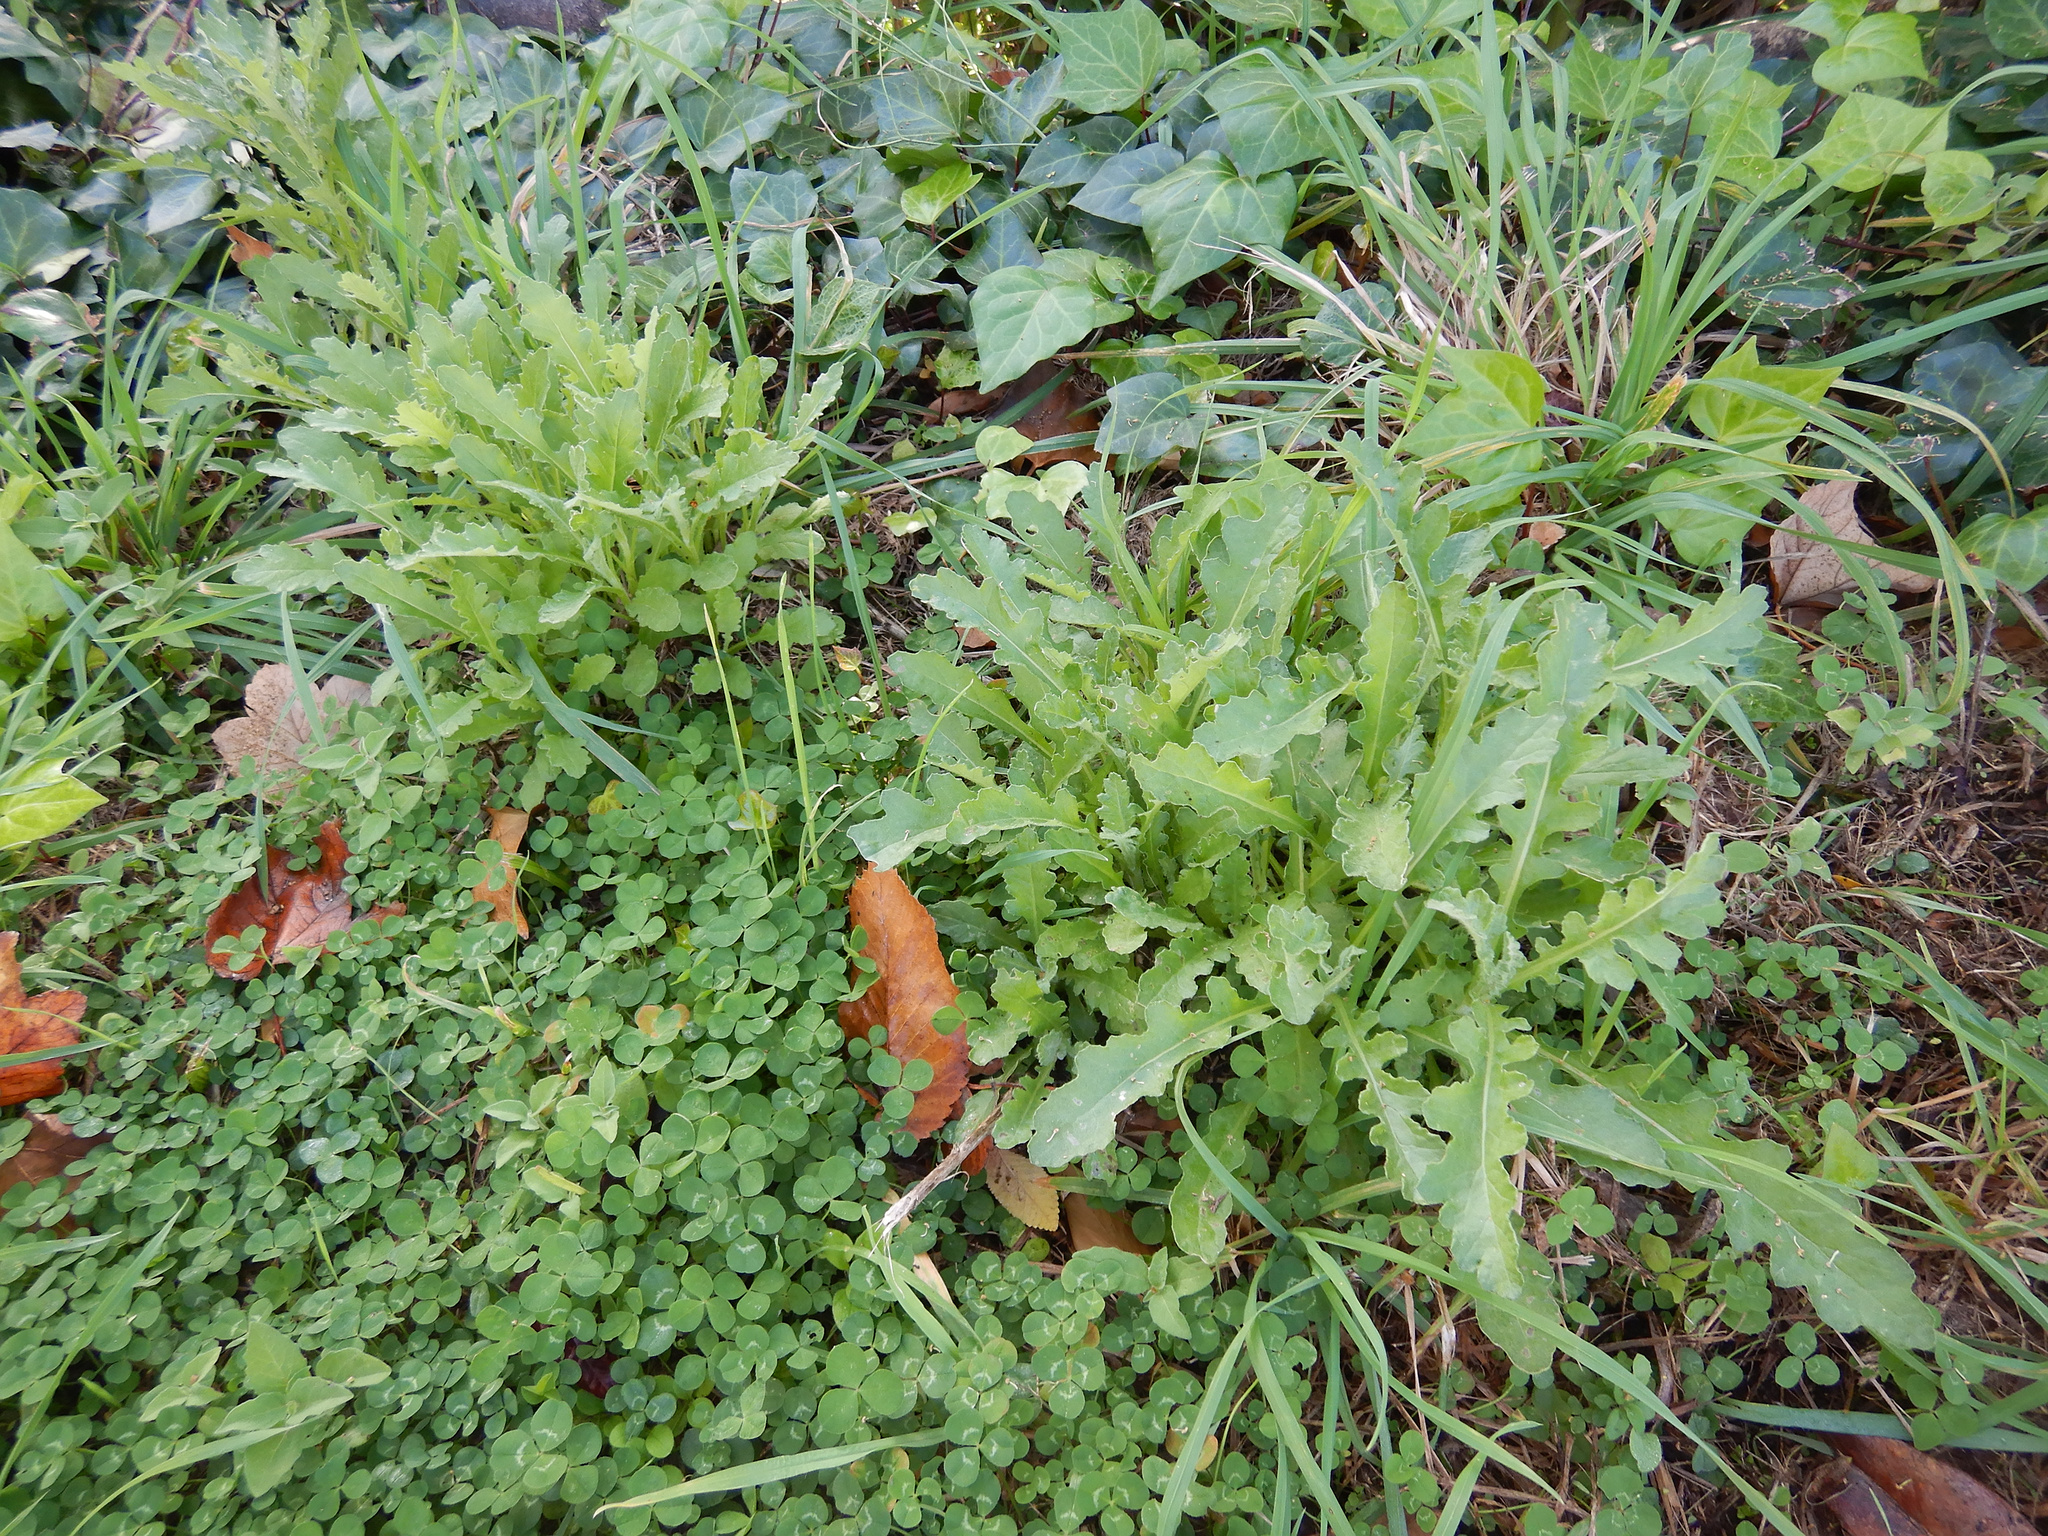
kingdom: Plantae
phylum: Tracheophyta
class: Magnoliopsida
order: Asterales
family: Asteraceae
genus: Senecio
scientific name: Senecio glomeratus
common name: Cutleaf burnweed
